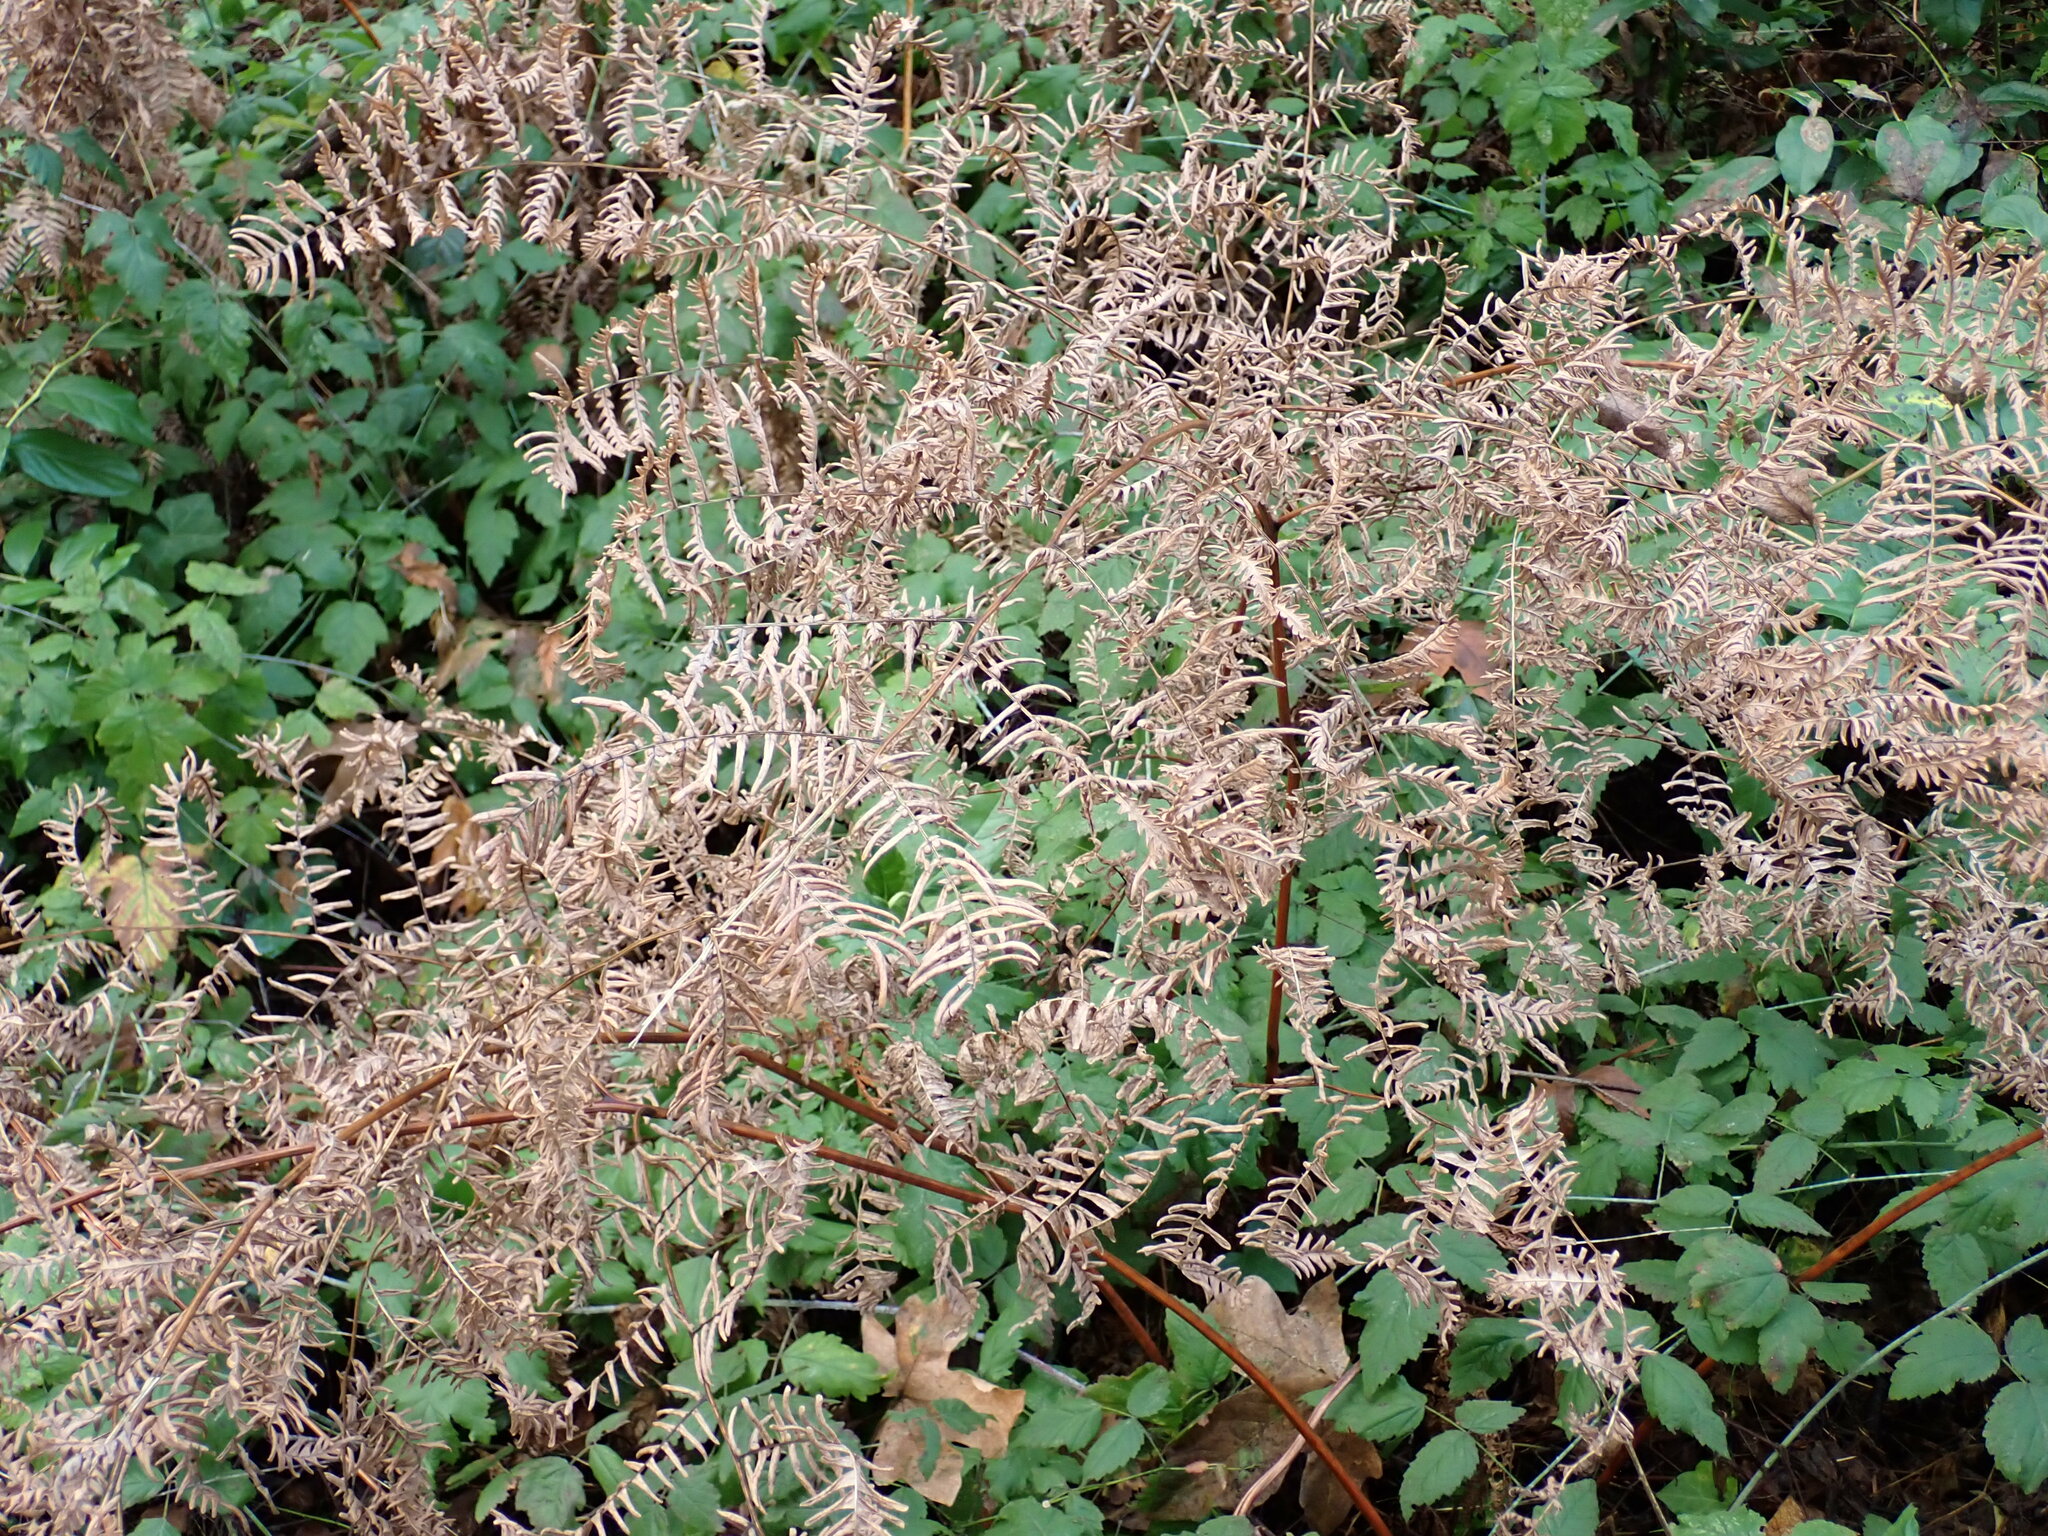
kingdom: Plantae
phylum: Tracheophyta
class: Polypodiopsida
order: Polypodiales
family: Dennstaedtiaceae
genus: Pteridium
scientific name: Pteridium aquilinum
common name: Bracken
